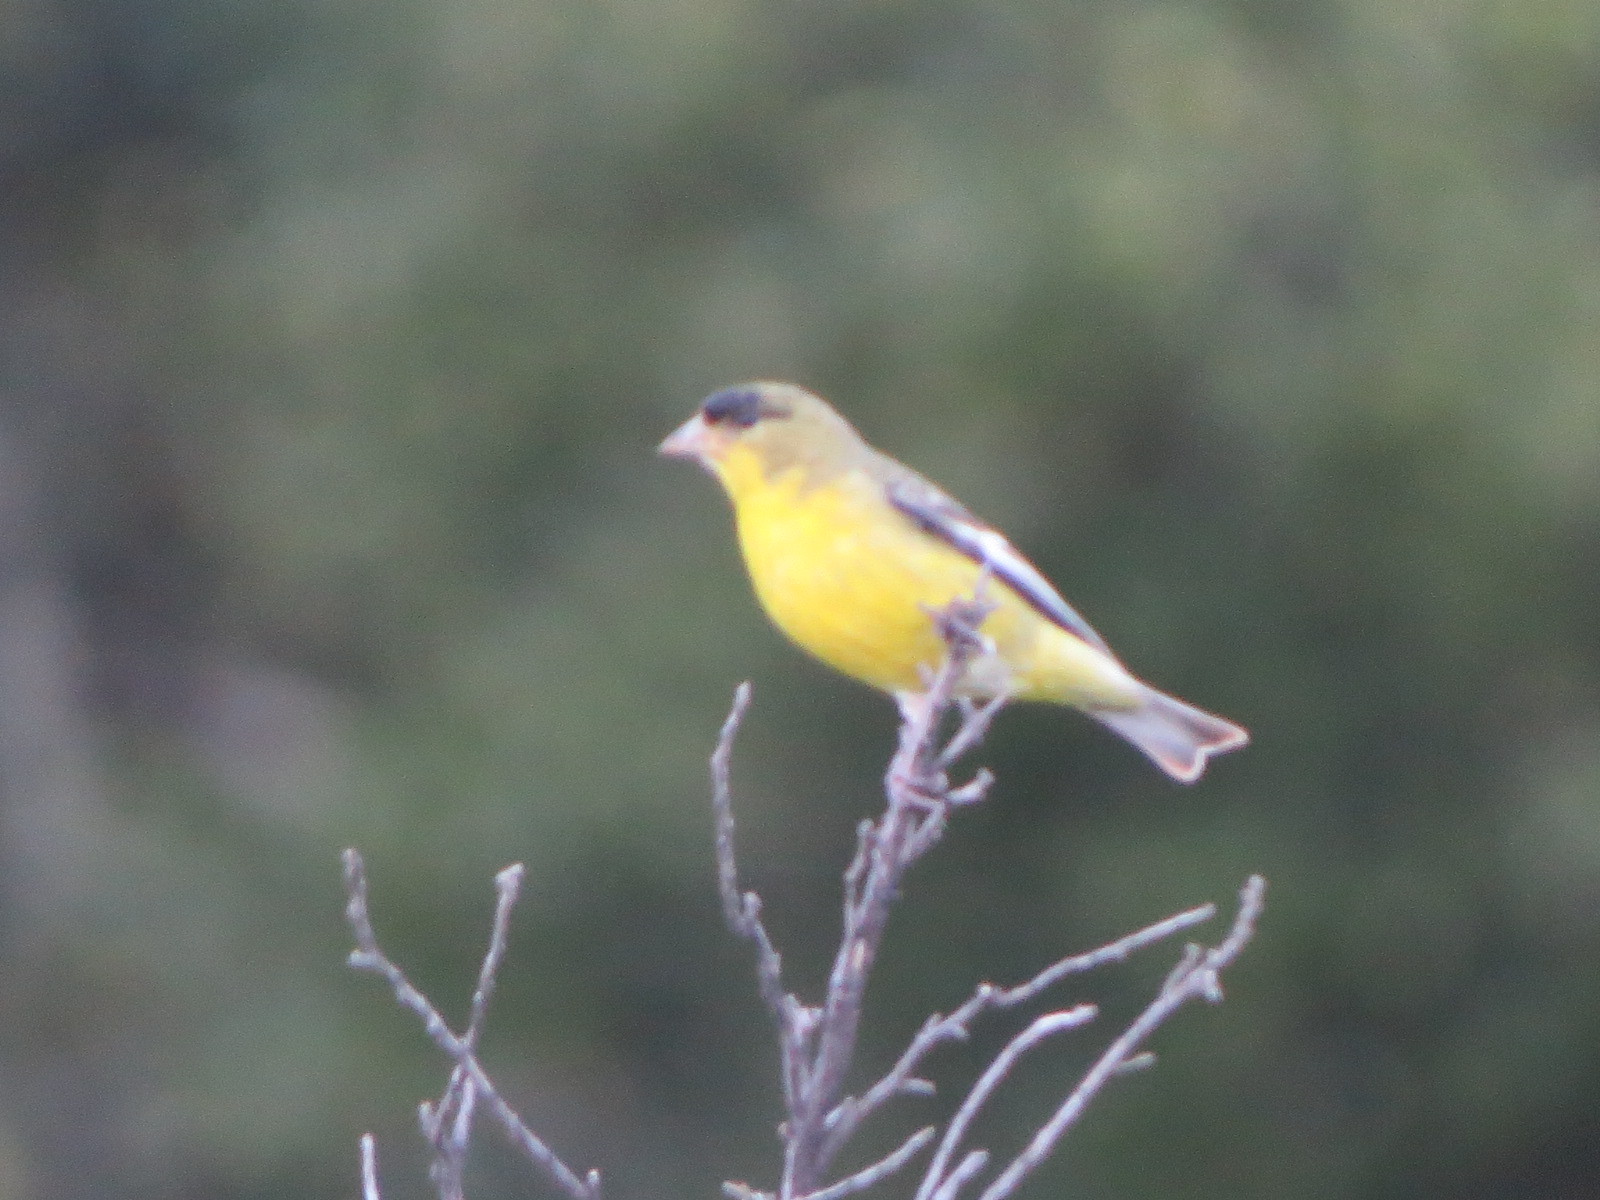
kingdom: Animalia
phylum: Chordata
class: Aves
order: Passeriformes
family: Fringillidae
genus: Spinus
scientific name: Spinus psaltria
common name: Lesser goldfinch
